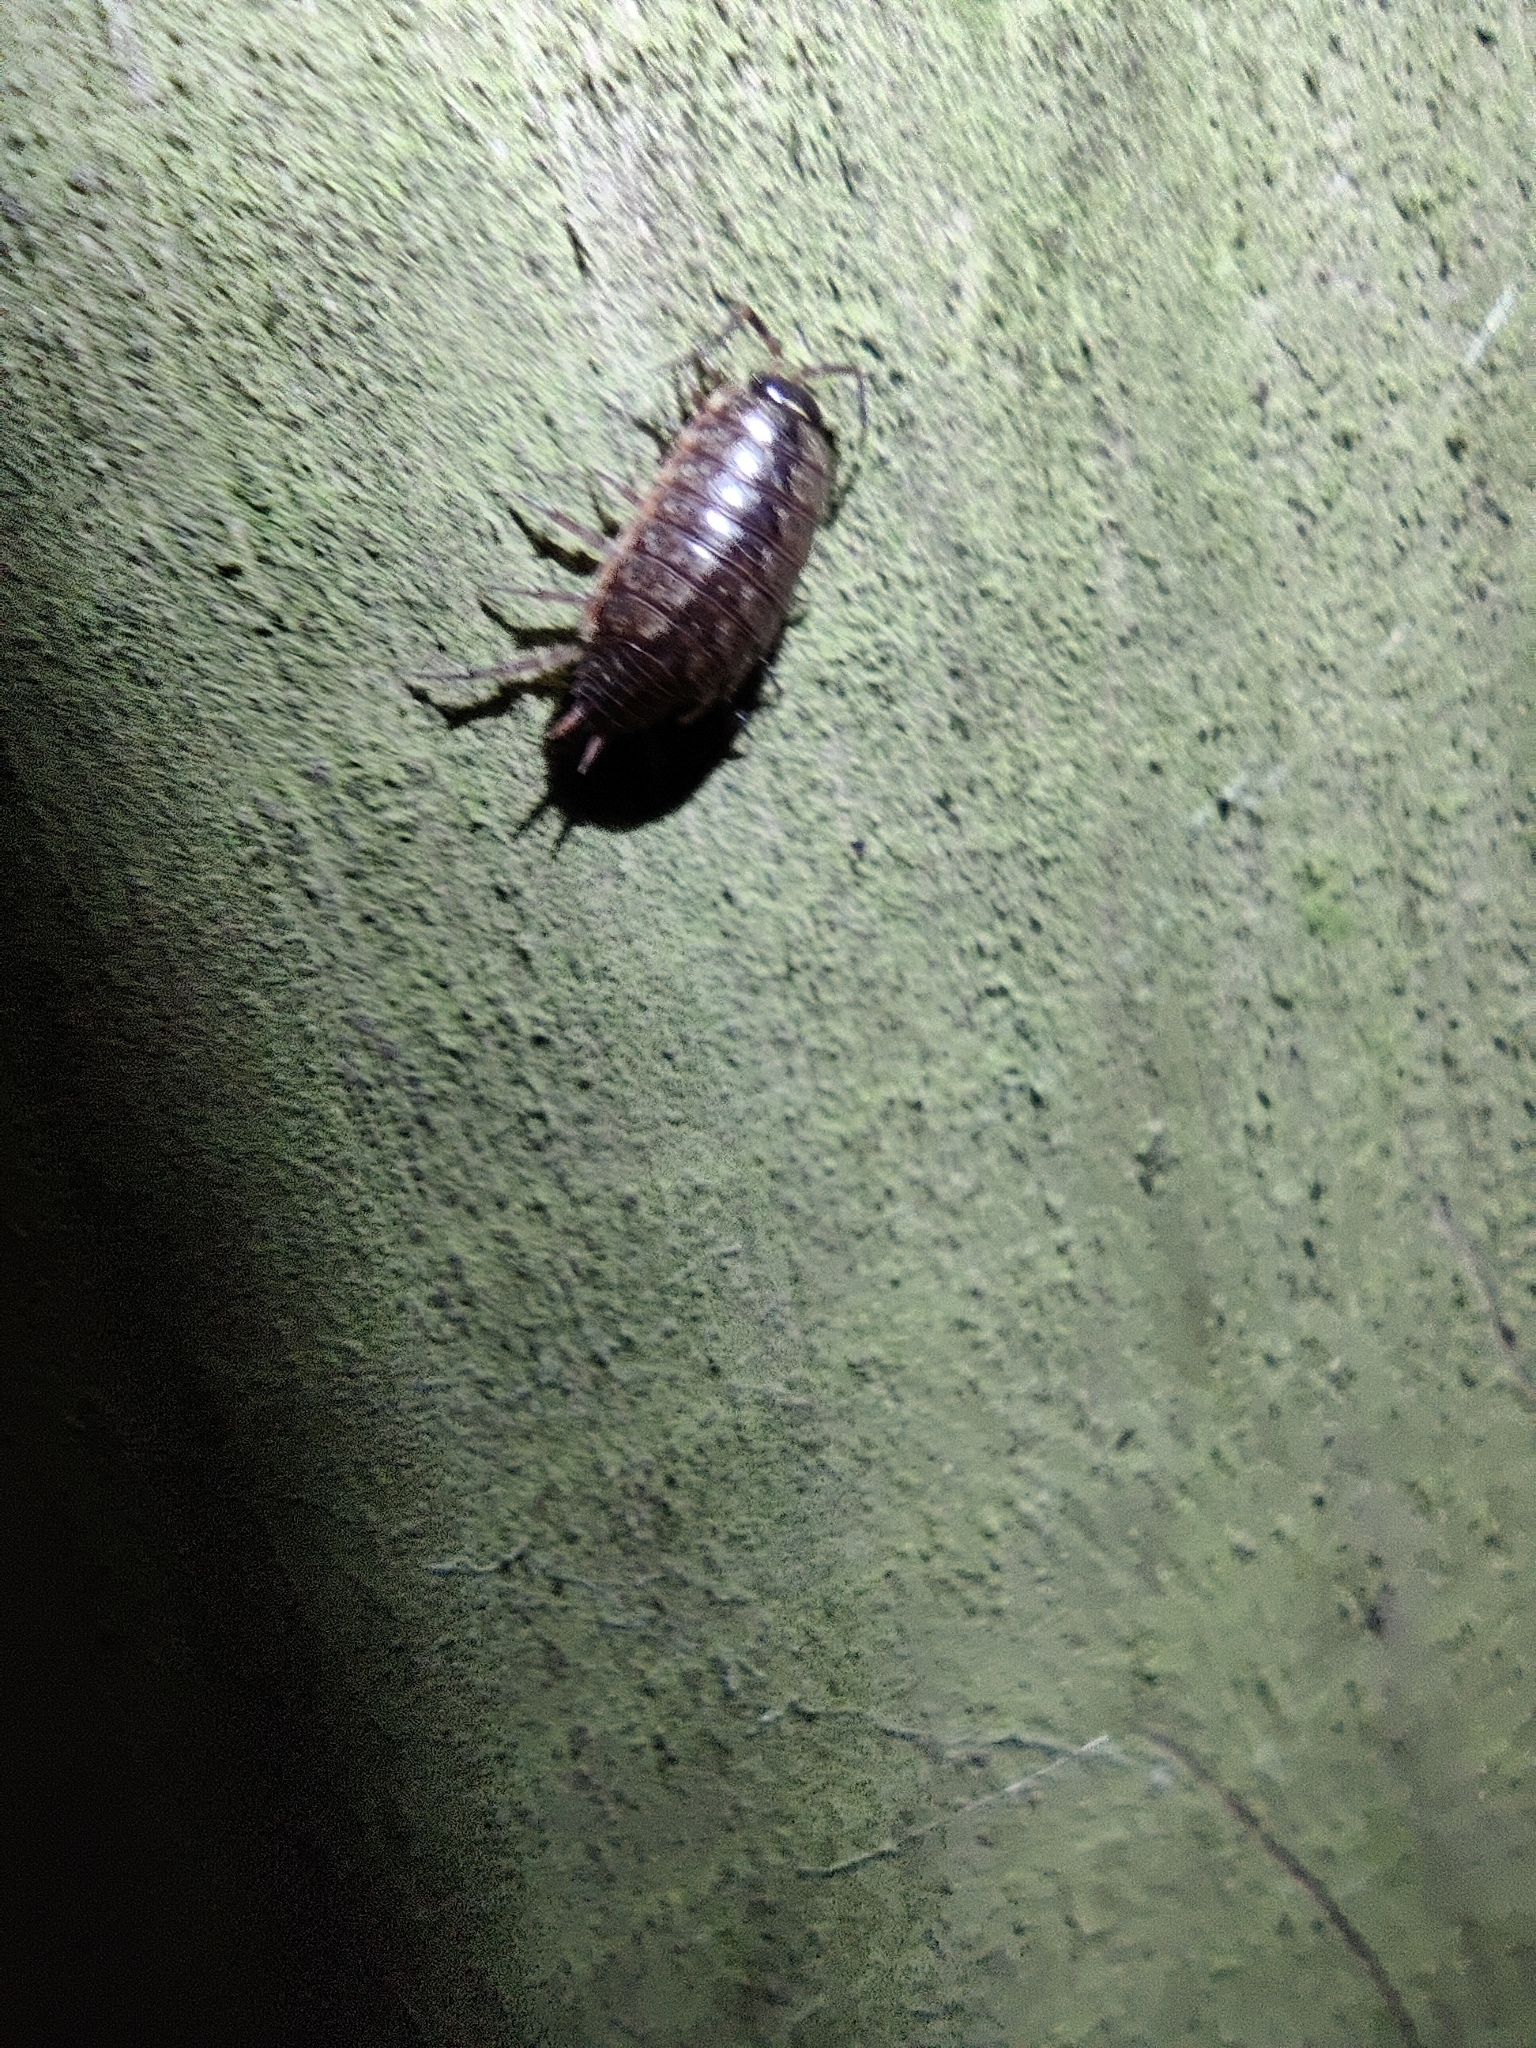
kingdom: Animalia
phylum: Arthropoda
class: Malacostraca
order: Isopoda
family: Philosciidae
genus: Philoscia
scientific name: Philoscia muscorum
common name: Common striped woodlouse
